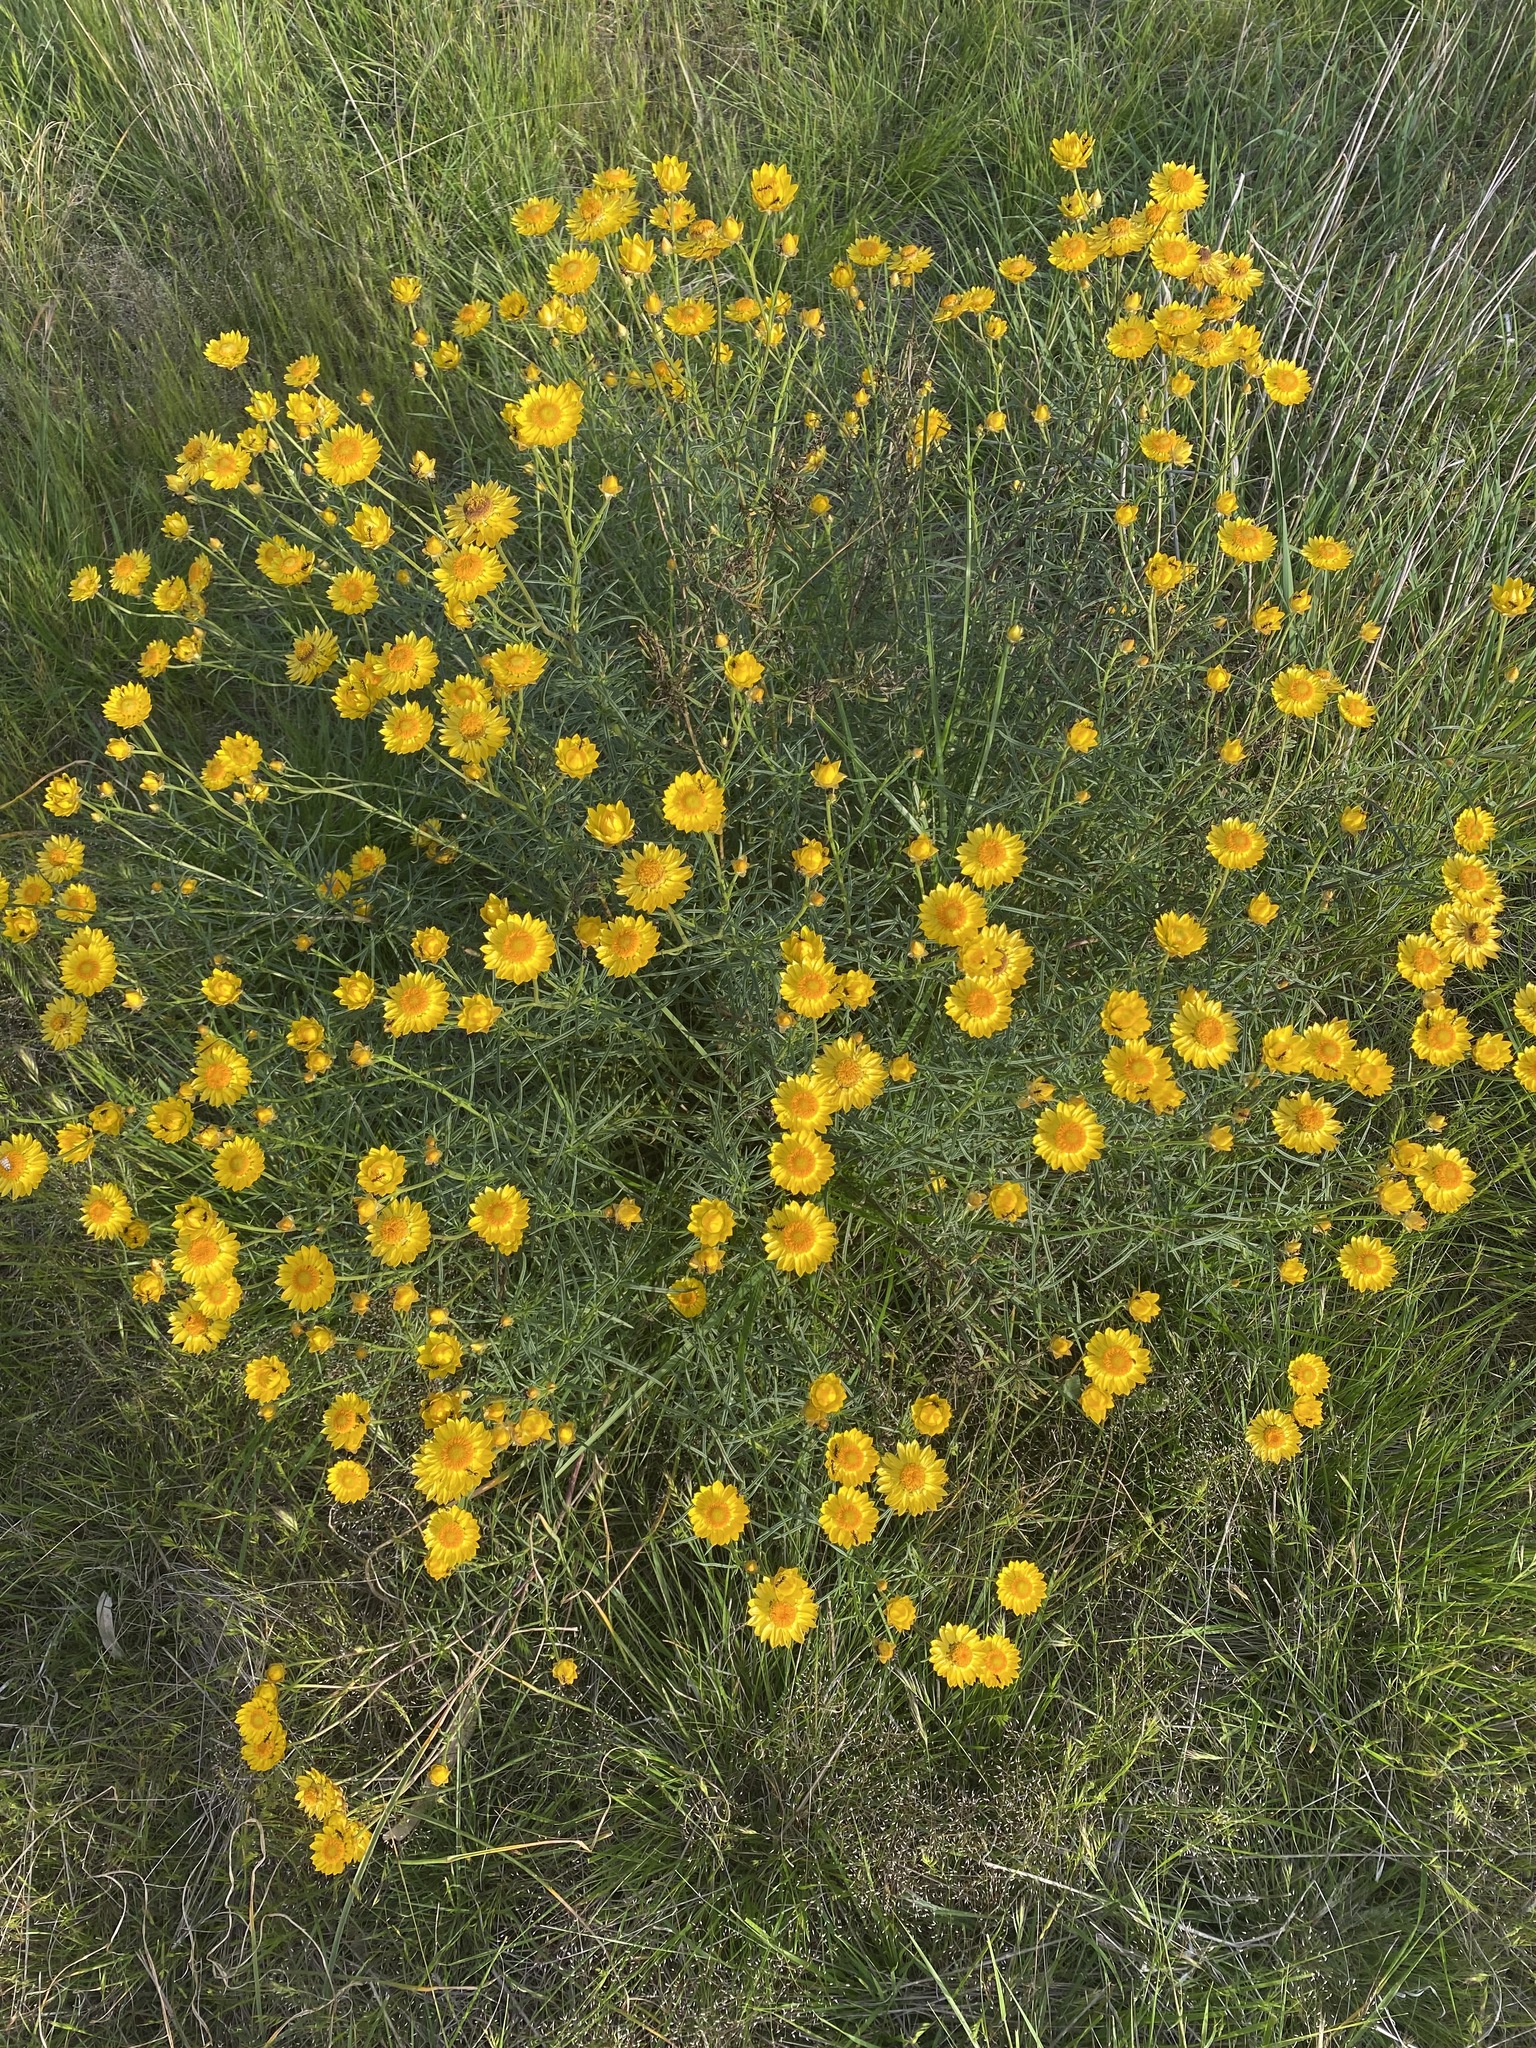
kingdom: Plantae
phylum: Tracheophyta
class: Magnoliopsida
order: Asterales
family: Asteraceae
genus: Xerochrysum
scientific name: Xerochrysum viscosum
